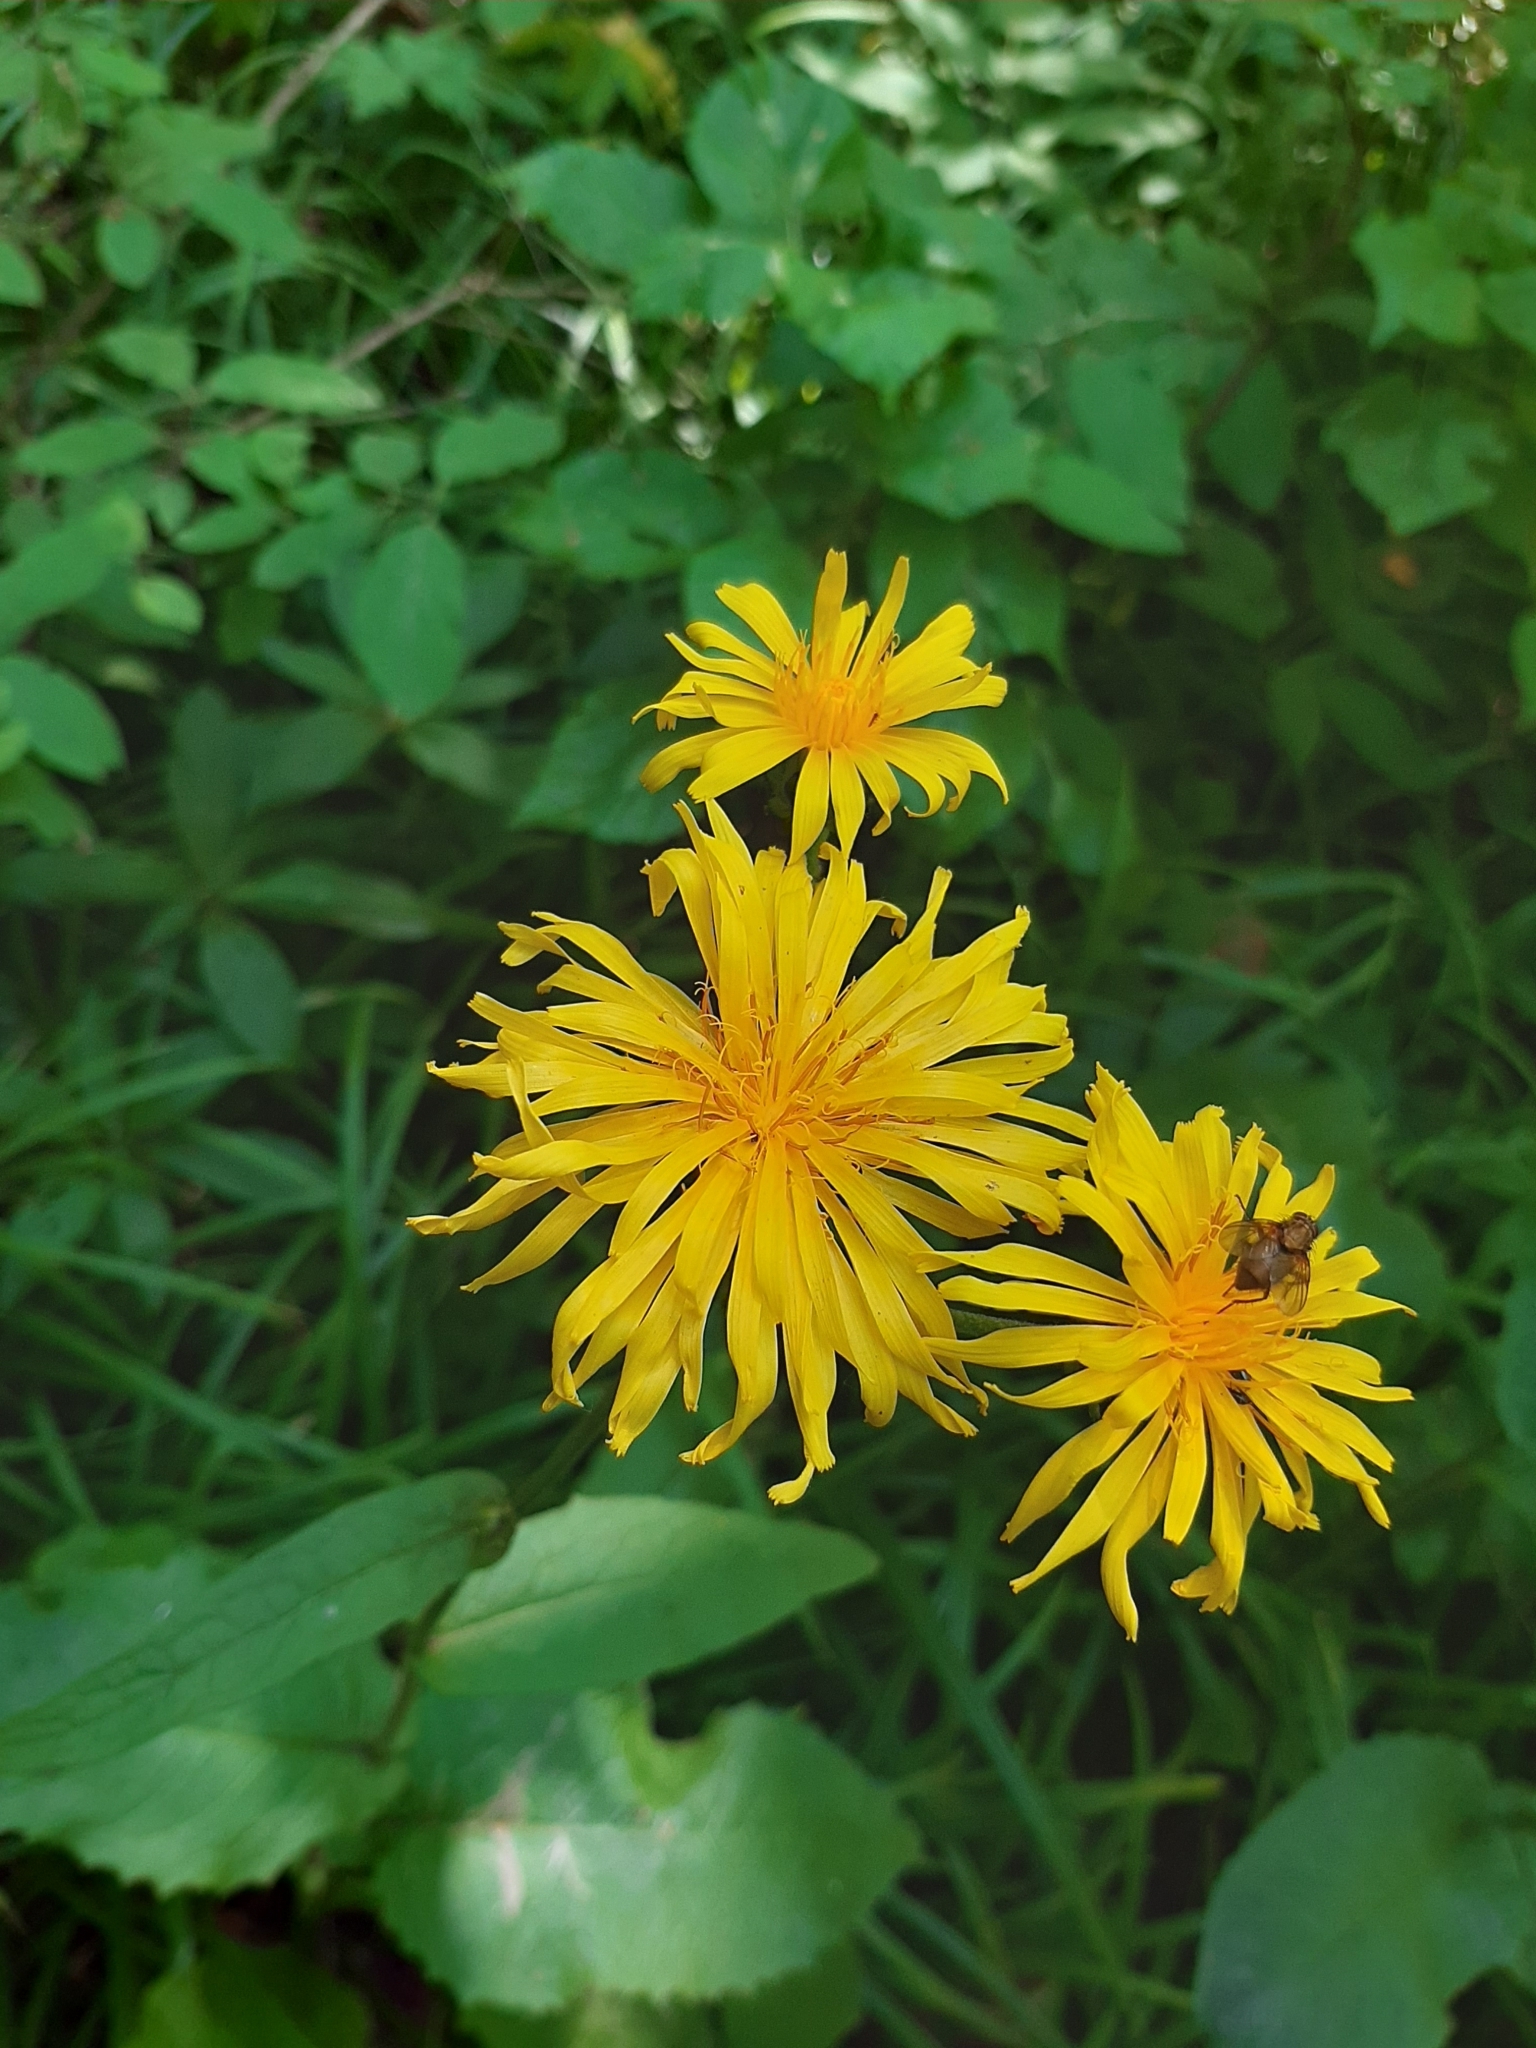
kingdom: Plantae
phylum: Tracheophyta
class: Magnoliopsida
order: Asterales
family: Asteraceae
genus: Crepis
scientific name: Crepis sibirica
